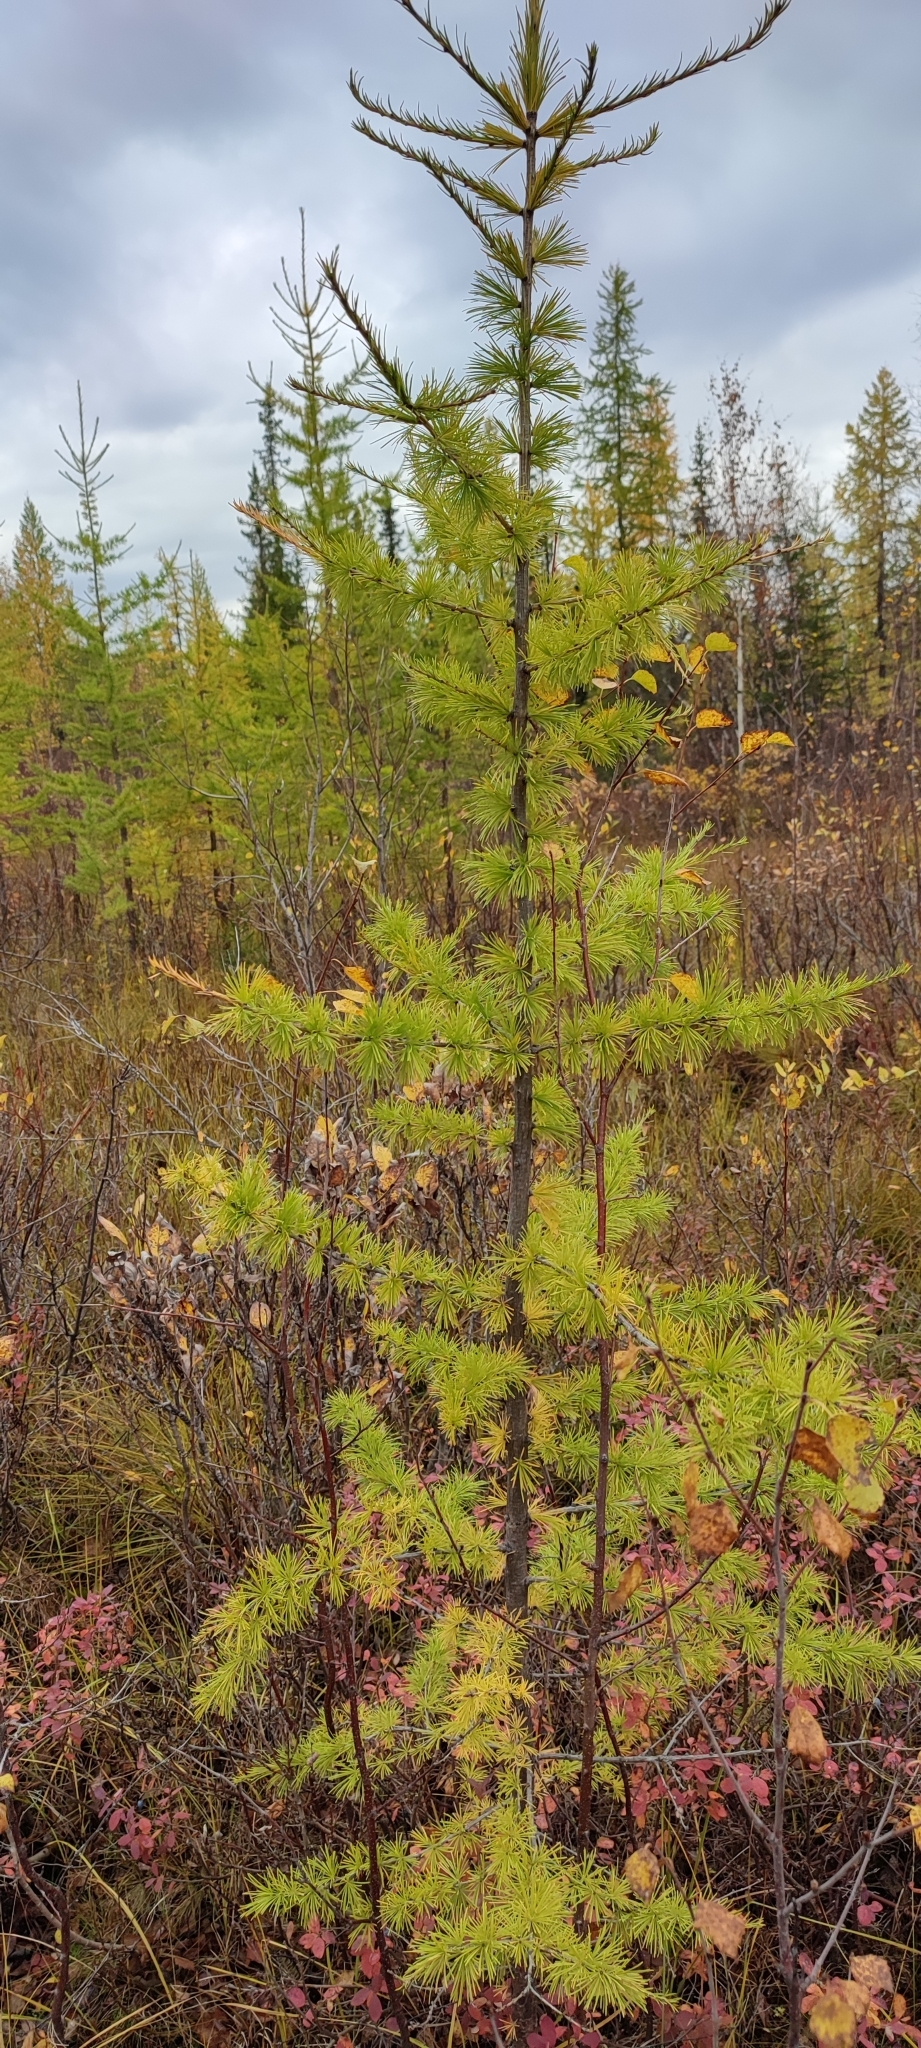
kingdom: Plantae
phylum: Tracheophyta
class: Pinopsida
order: Pinales
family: Pinaceae
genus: Larix
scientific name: Larix sibirica
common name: Siberian larch
